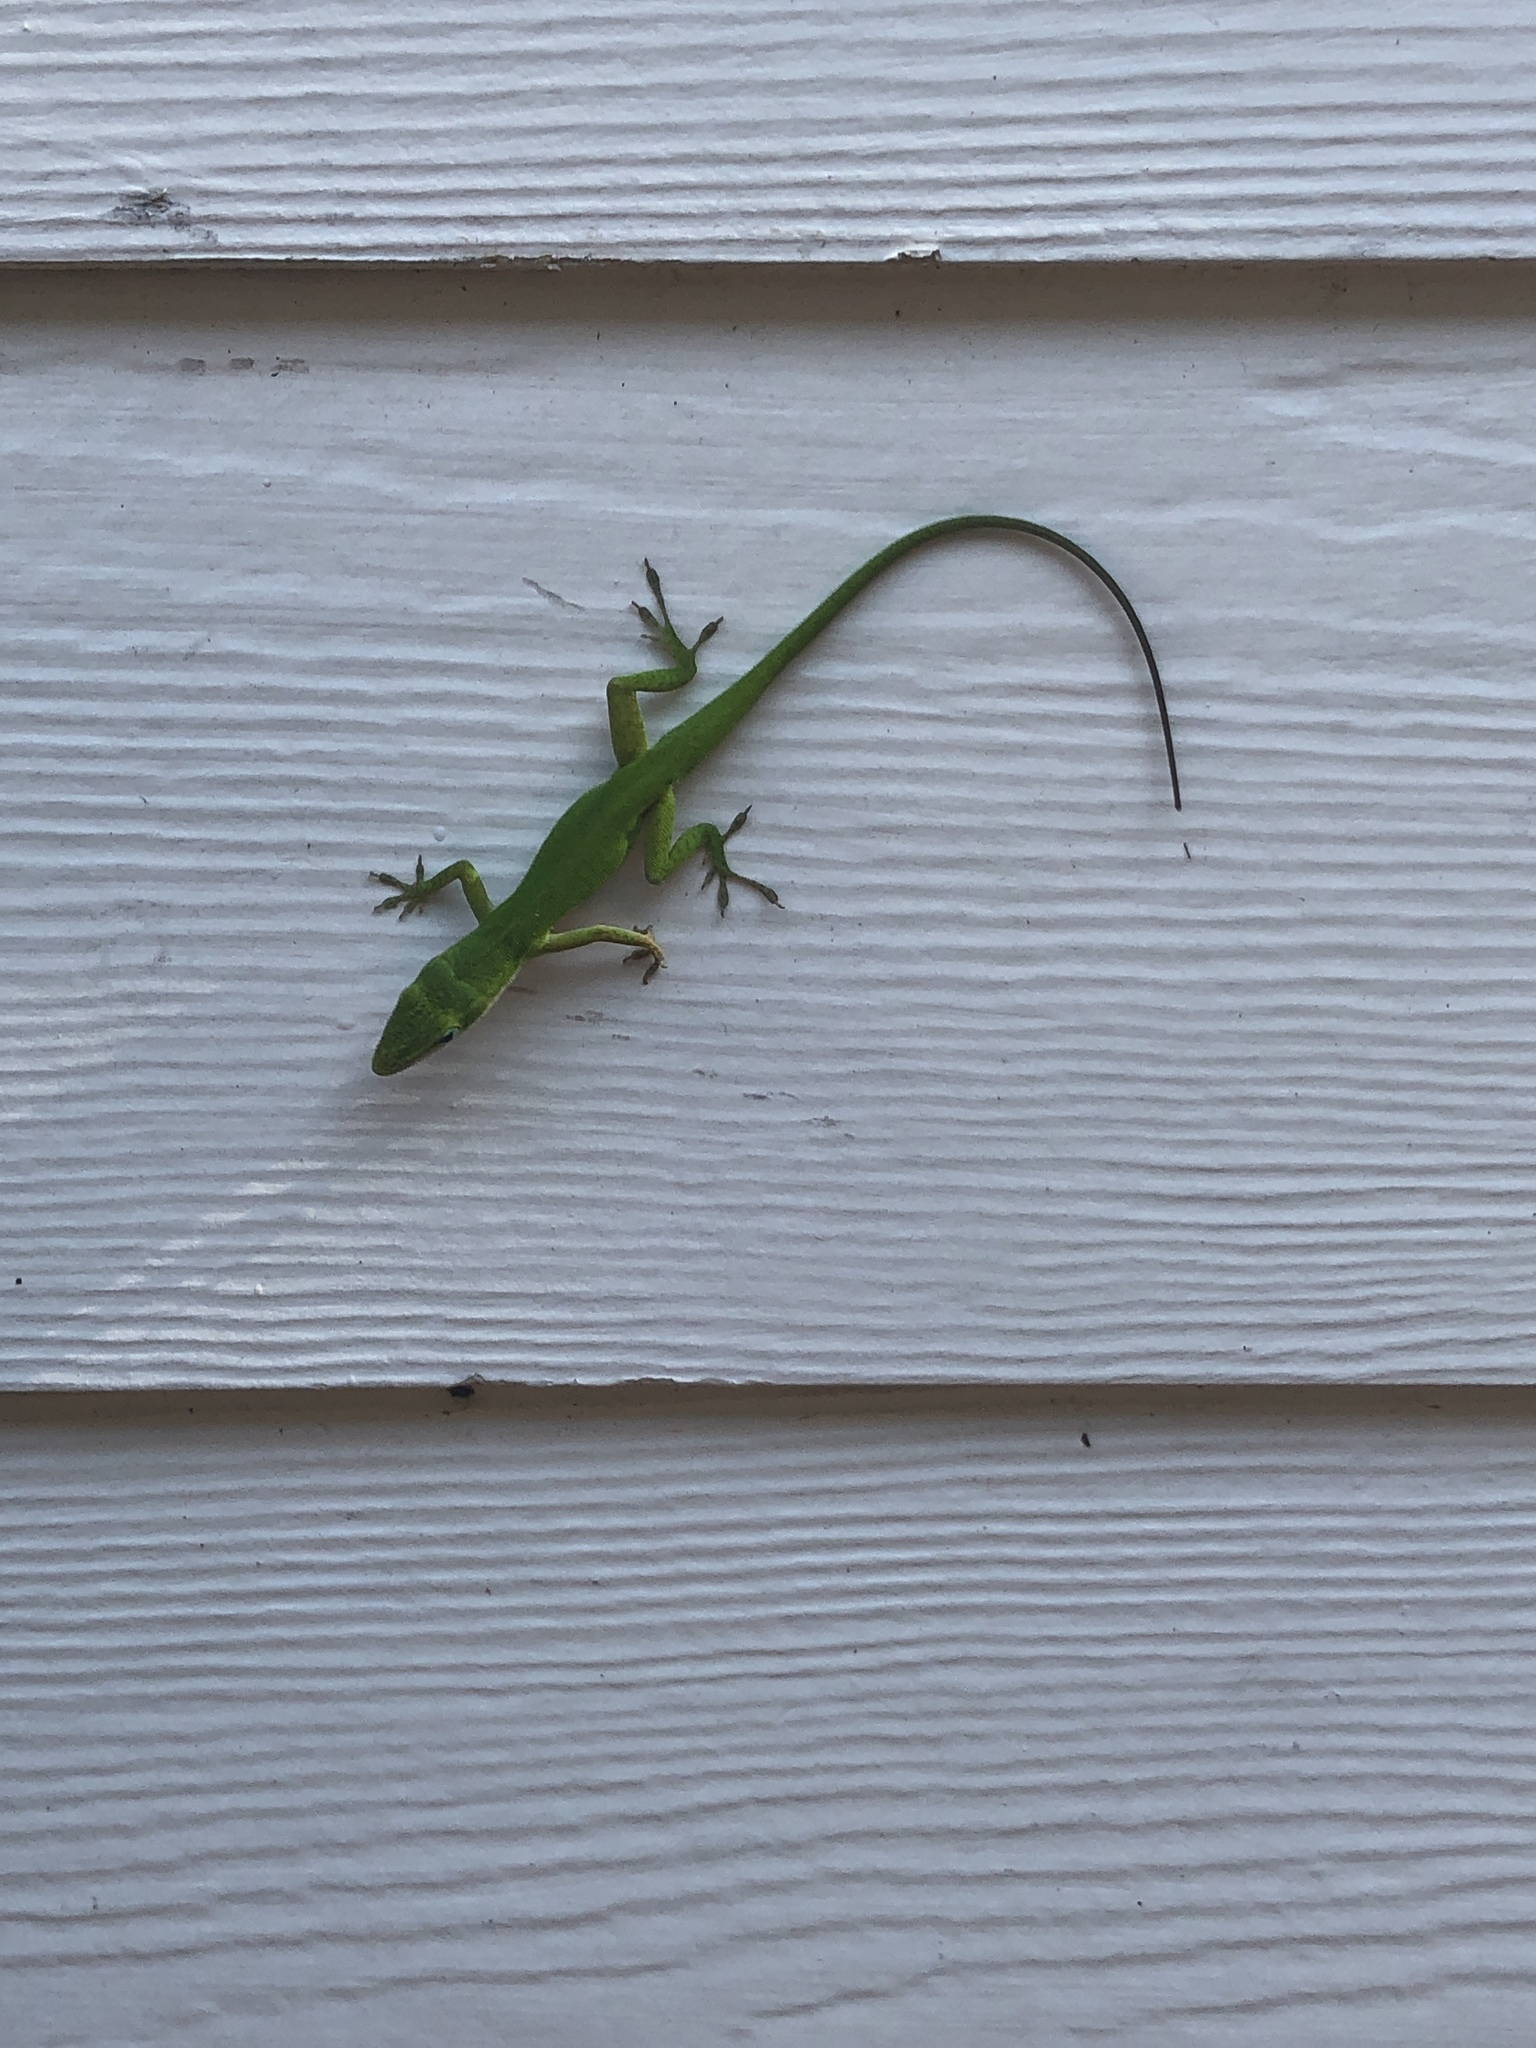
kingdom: Animalia
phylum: Chordata
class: Squamata
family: Dactyloidae
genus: Anolis
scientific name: Anolis carolinensis
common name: Green anole
